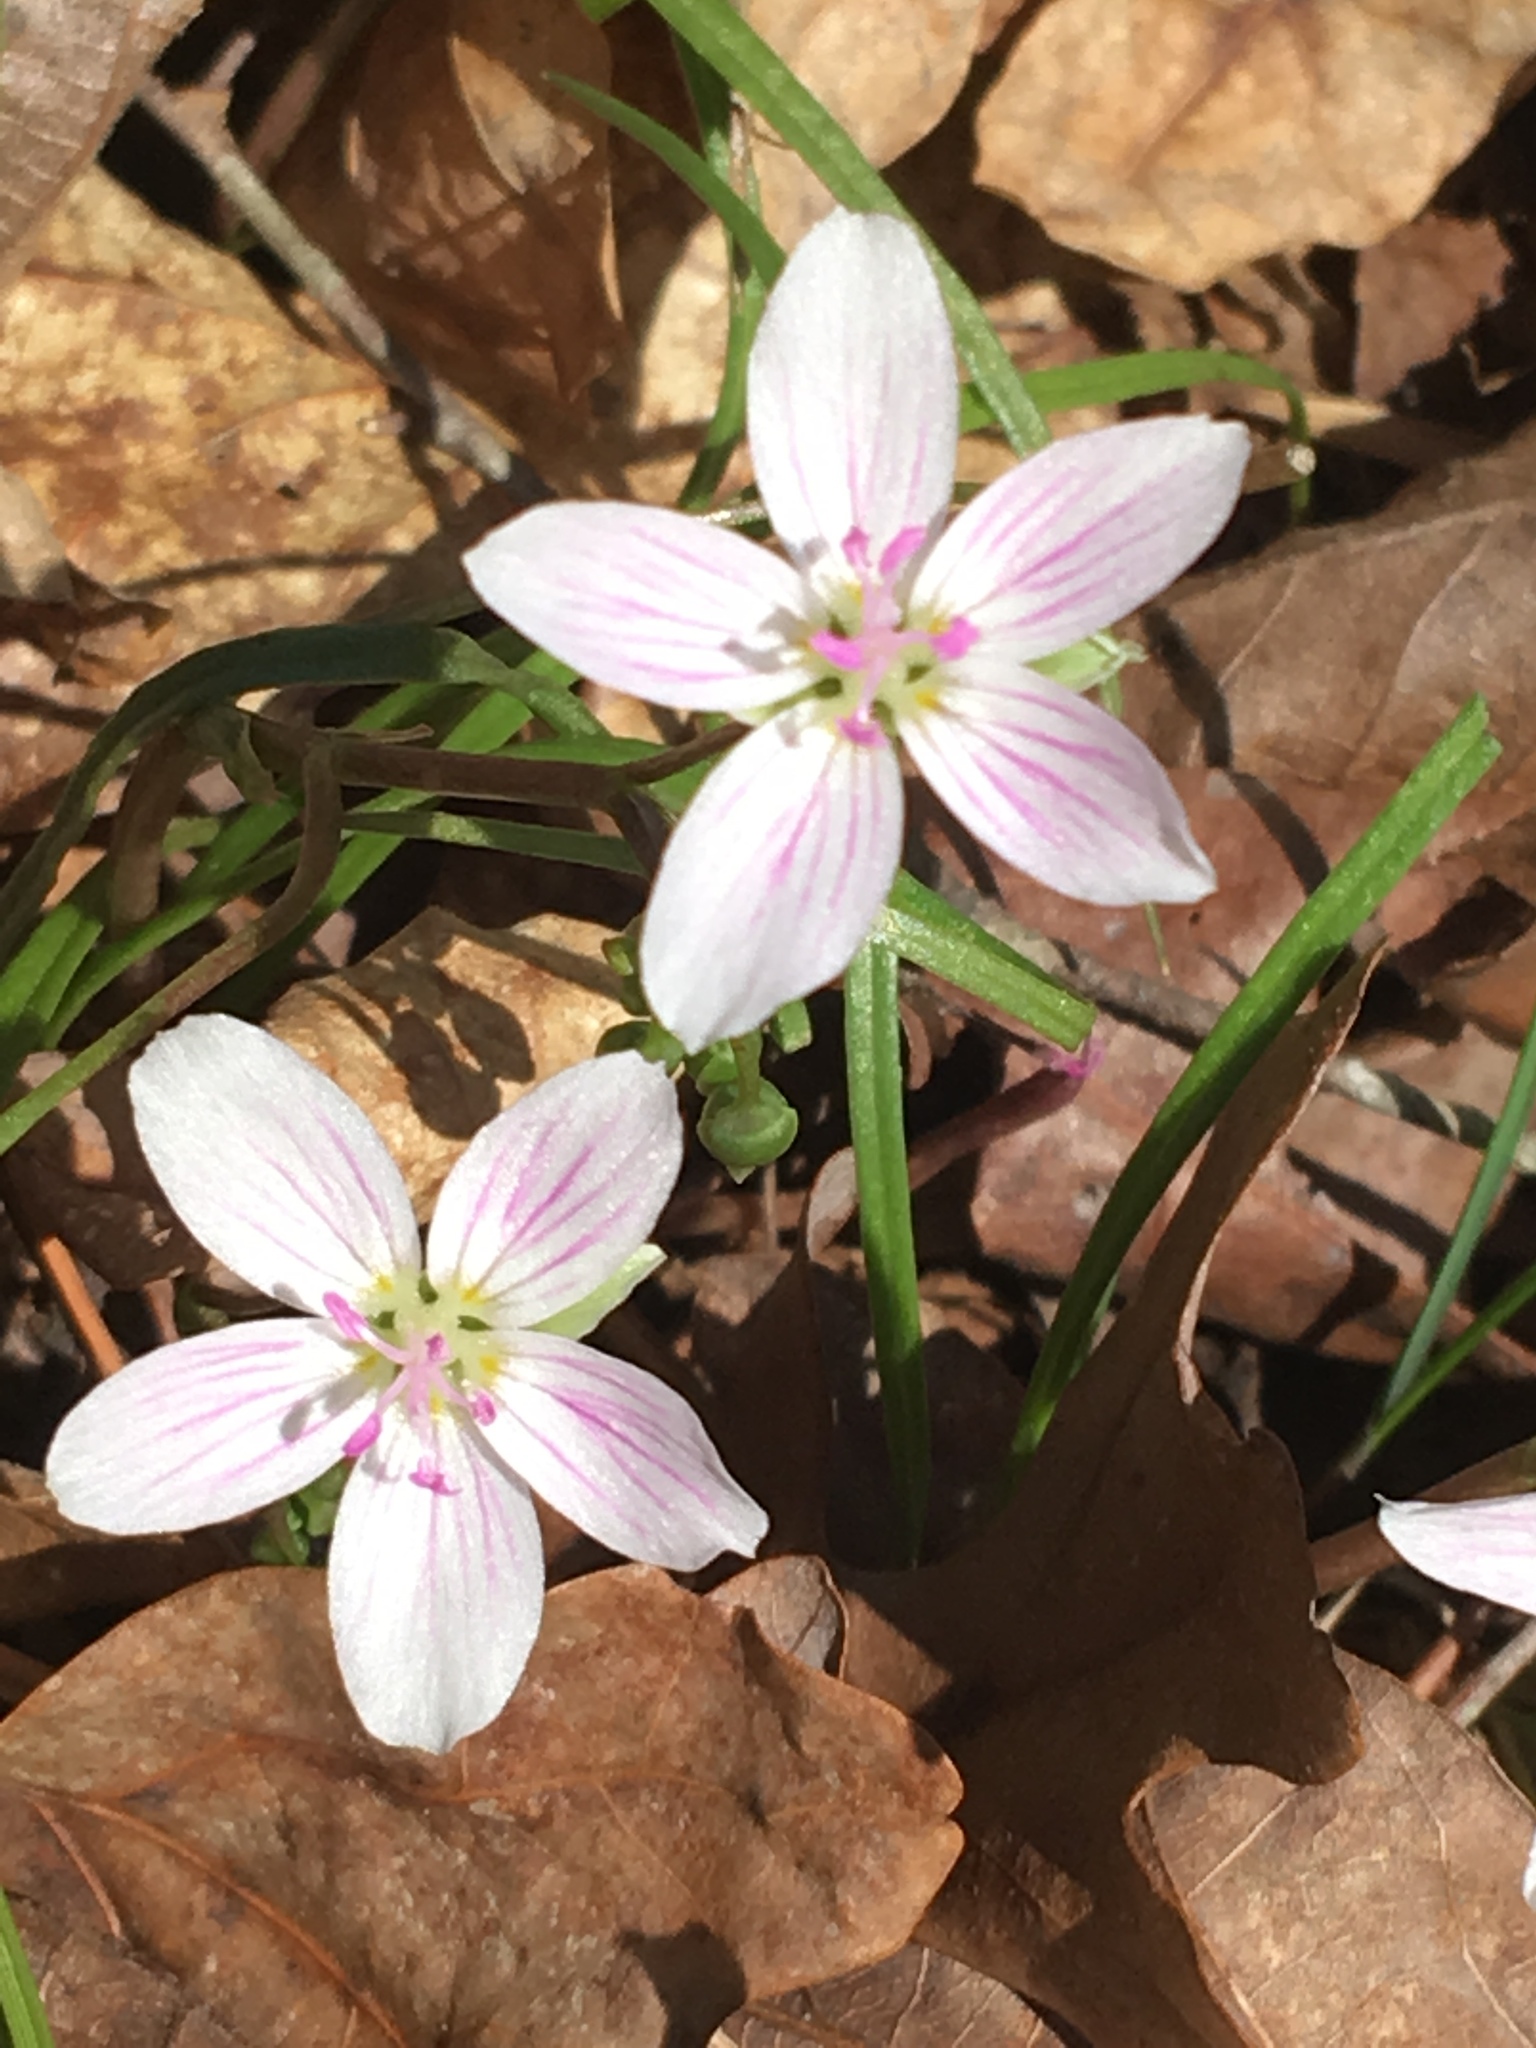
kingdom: Plantae
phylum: Tracheophyta
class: Magnoliopsida
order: Caryophyllales
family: Montiaceae
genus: Claytonia
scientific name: Claytonia virginica
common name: Virginia springbeauty
